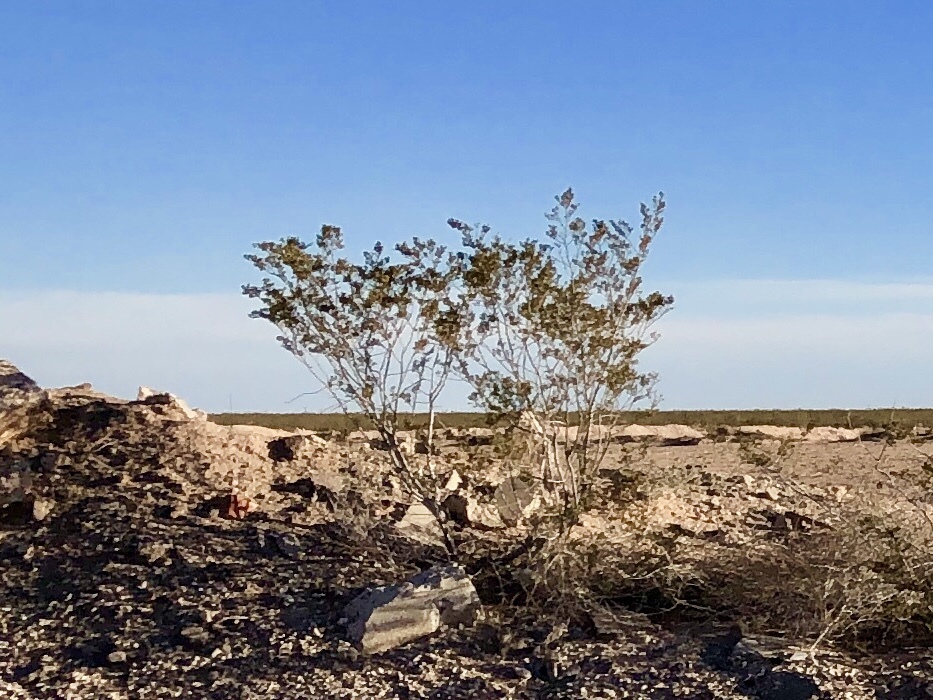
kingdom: Plantae
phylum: Tracheophyta
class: Magnoliopsida
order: Zygophyllales
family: Zygophyllaceae
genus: Larrea
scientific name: Larrea tridentata
